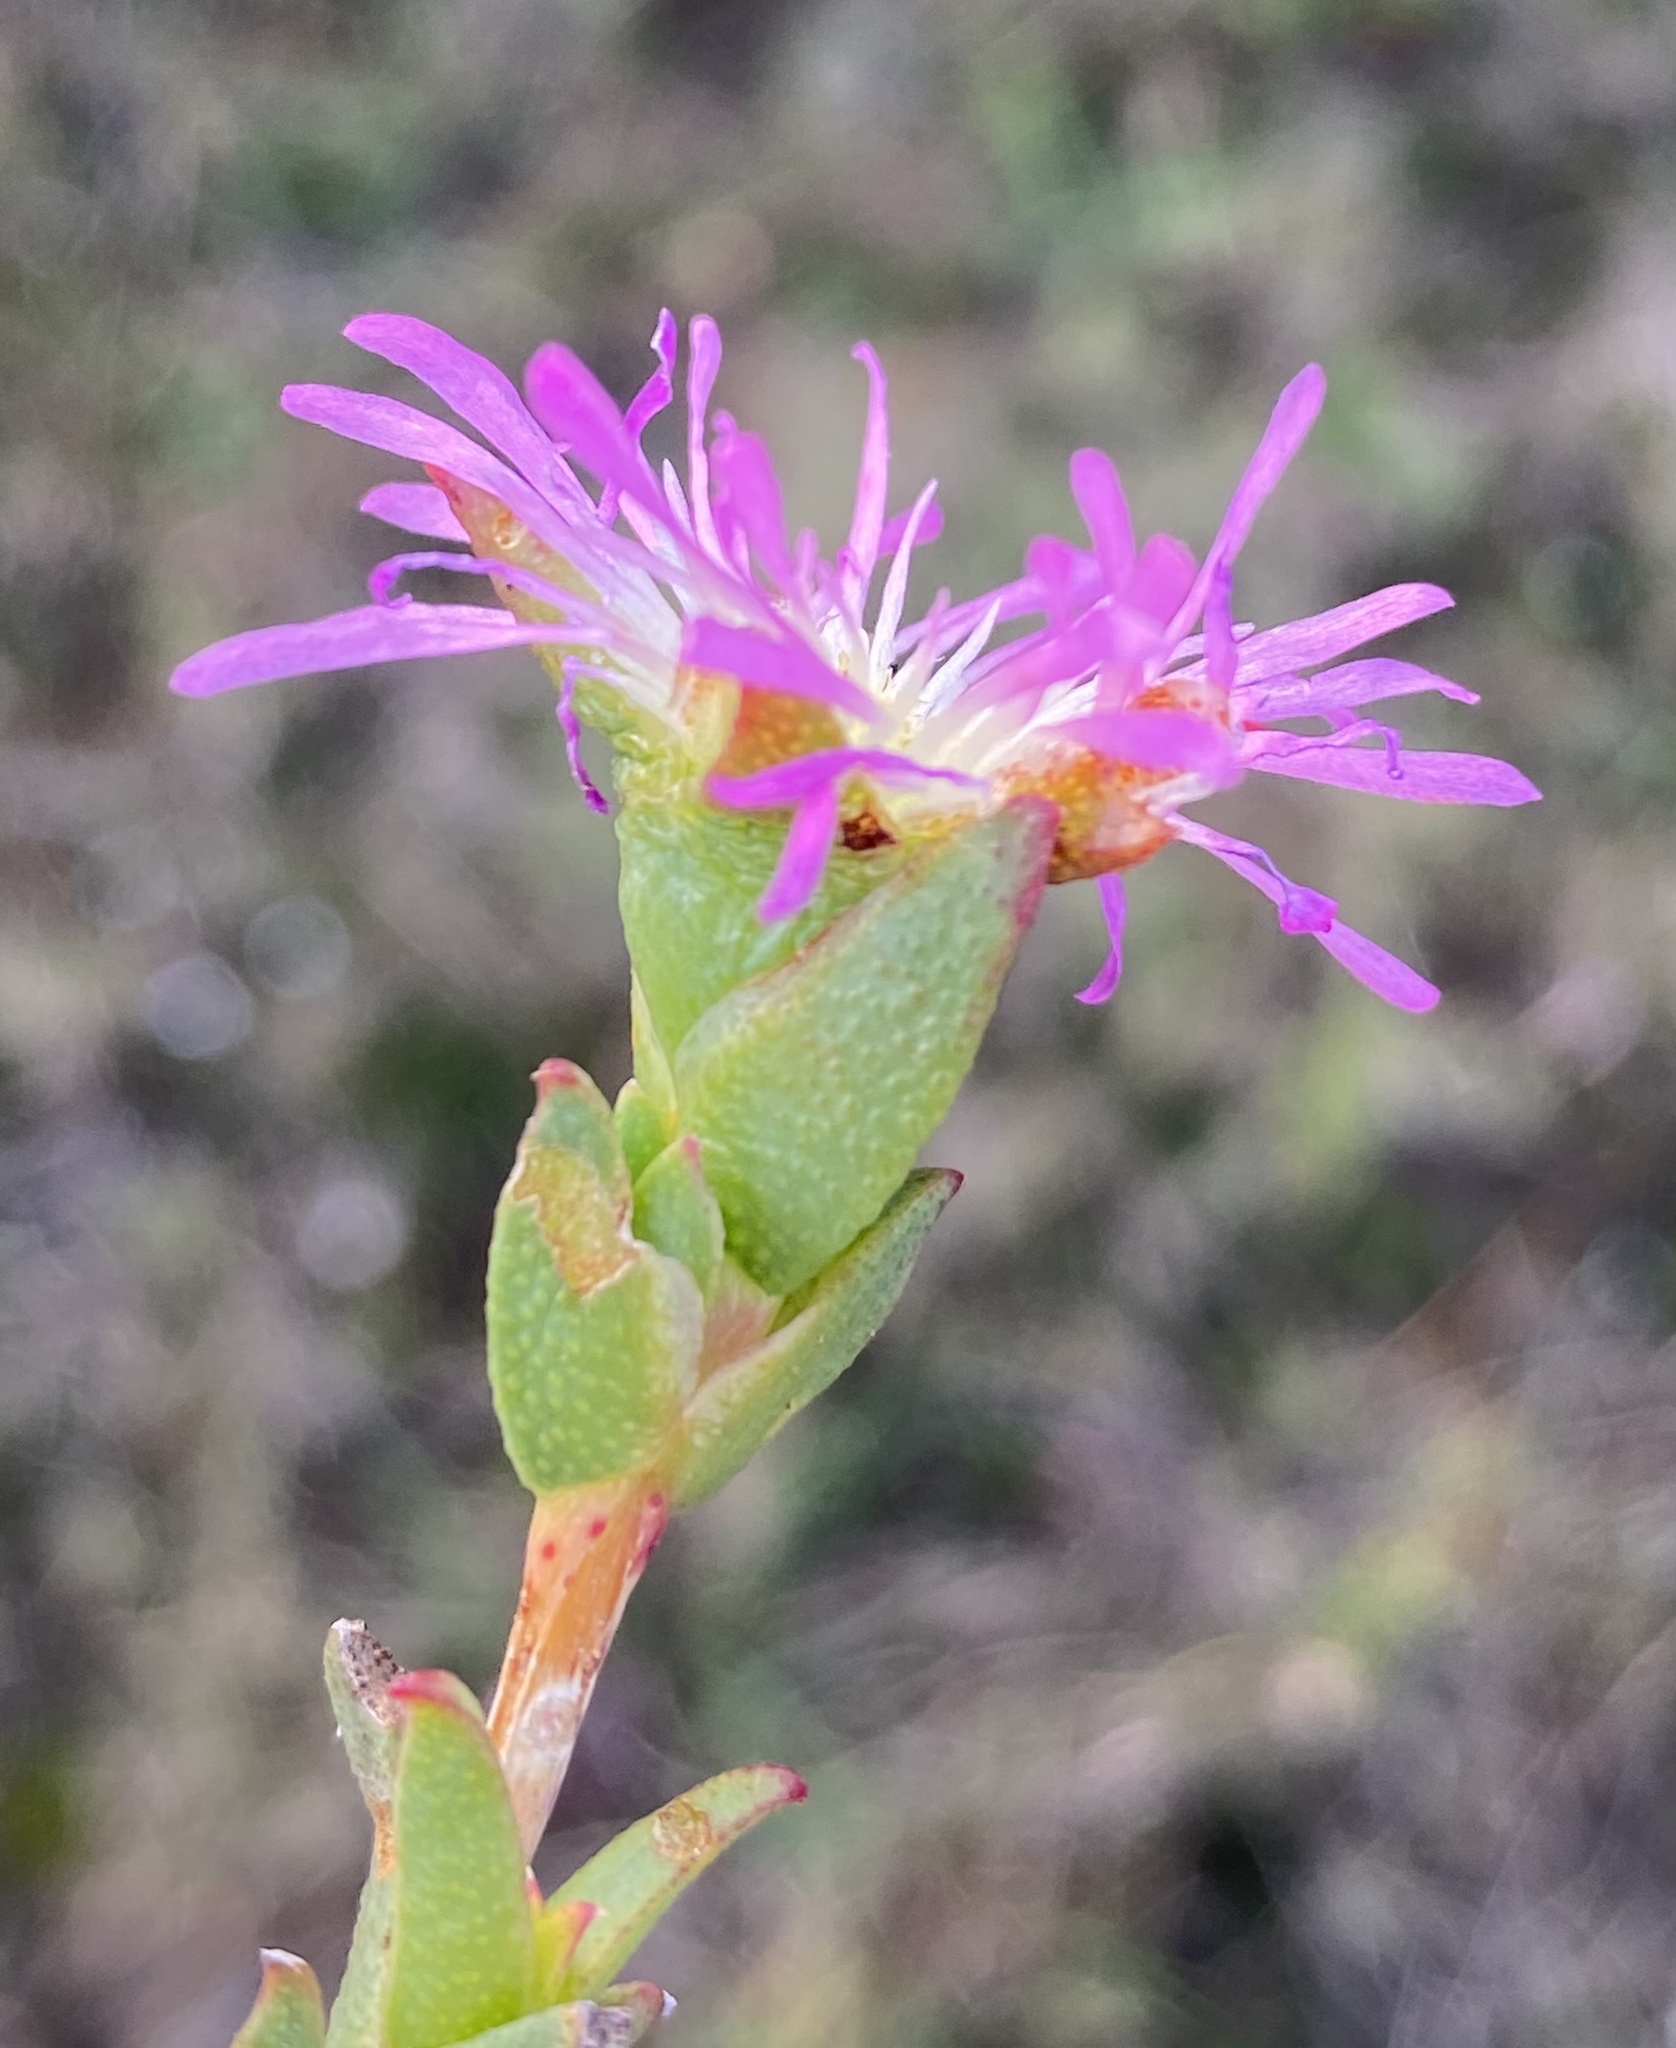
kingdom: Plantae
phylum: Tracheophyta
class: Magnoliopsida
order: Caryophyllales
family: Aizoaceae
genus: Erepsia
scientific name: Erepsia bracteata
